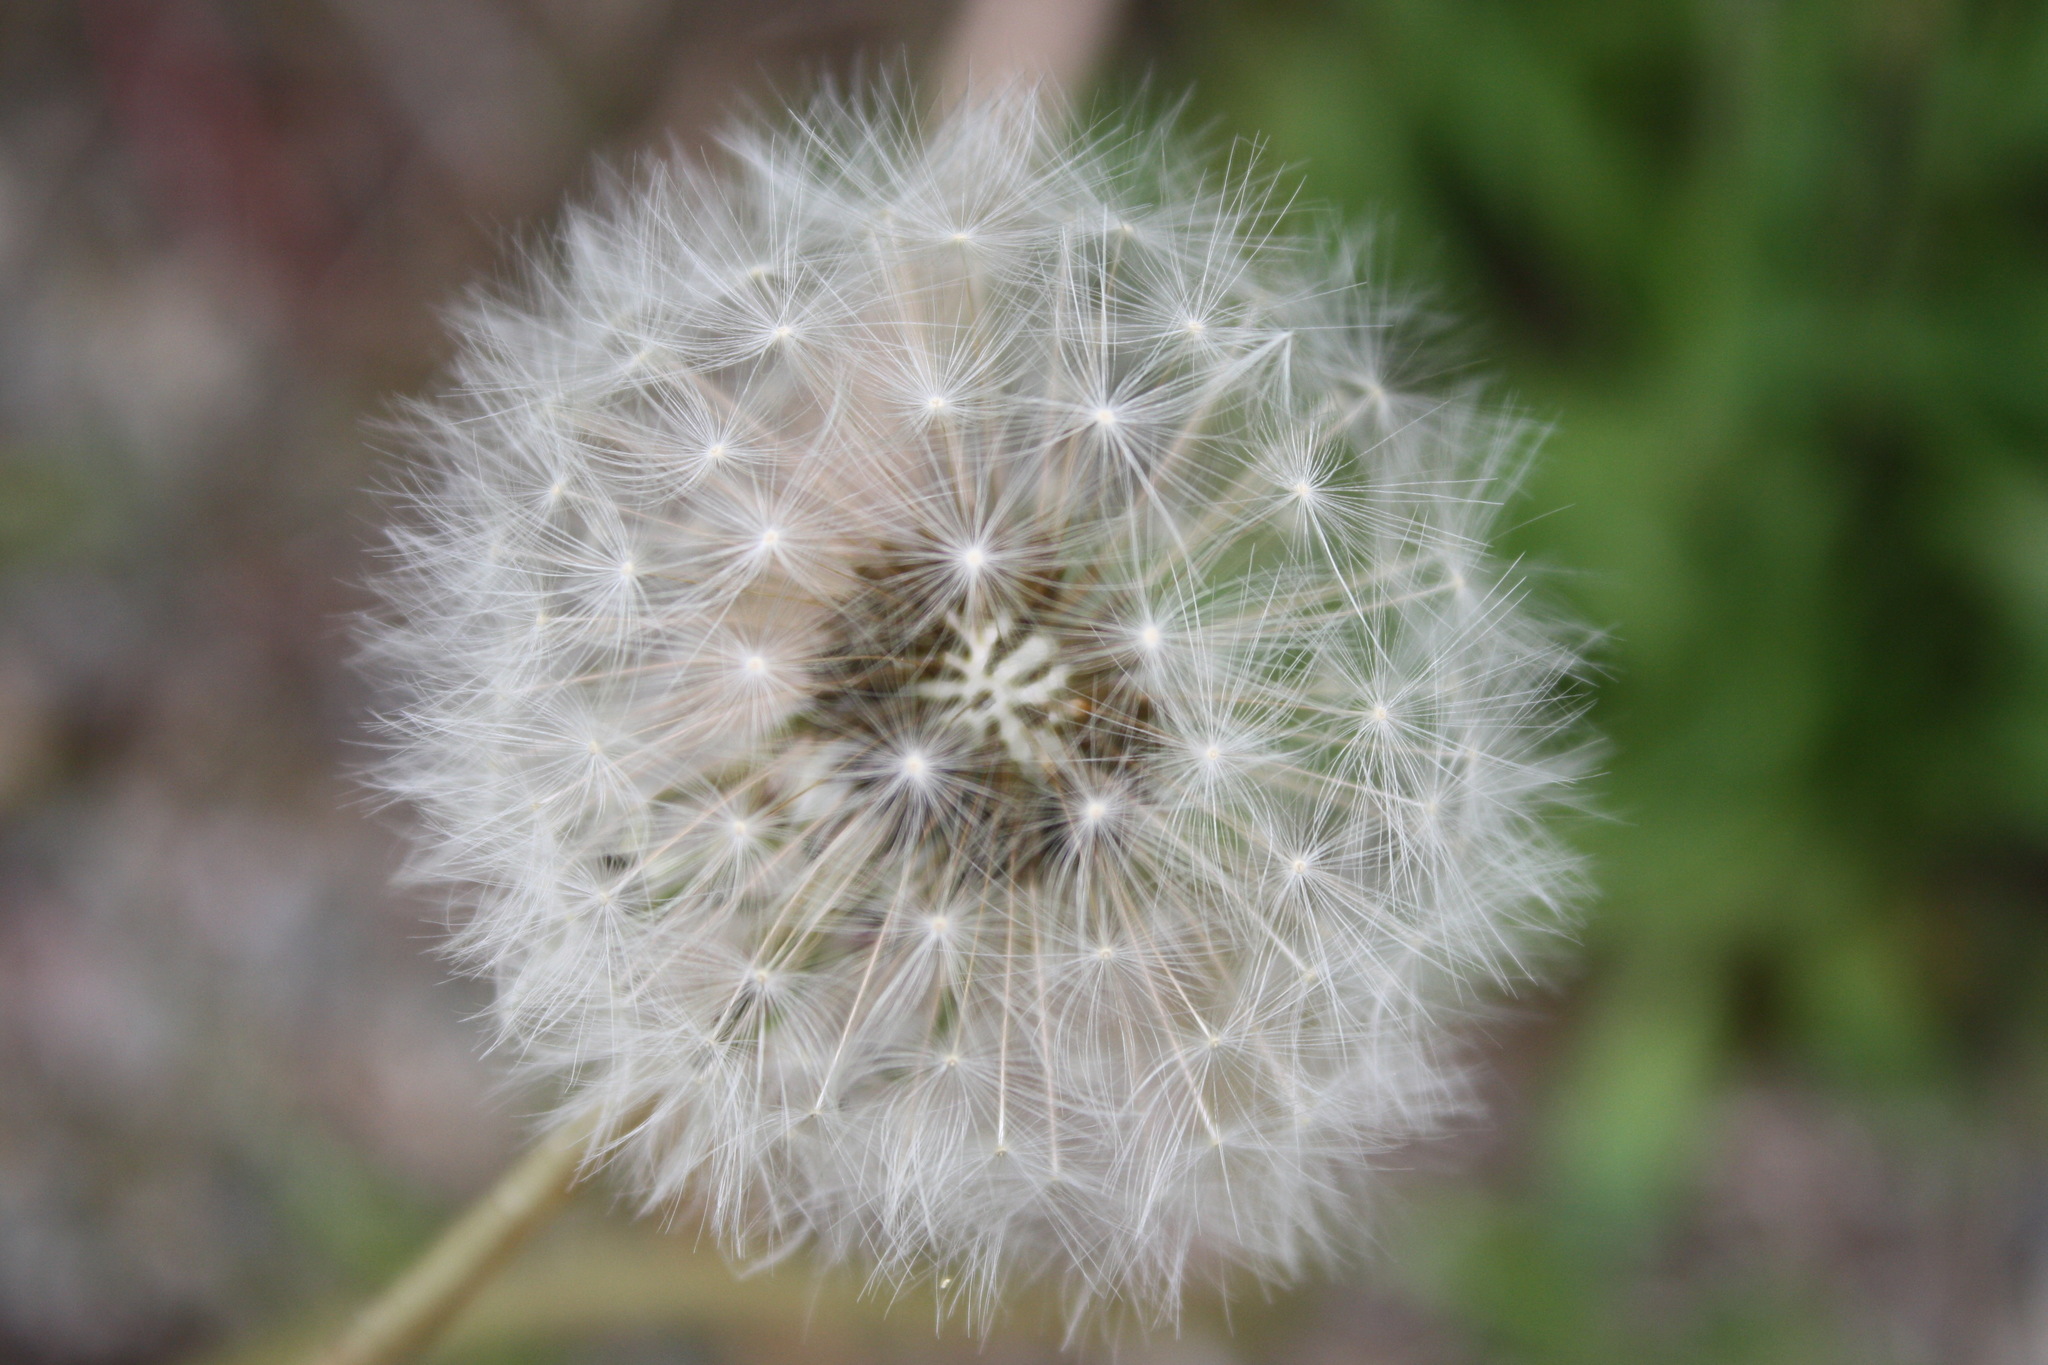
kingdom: Plantae
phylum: Tracheophyta
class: Magnoliopsida
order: Asterales
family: Asteraceae
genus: Taraxacum
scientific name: Taraxacum officinale
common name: Common dandelion
